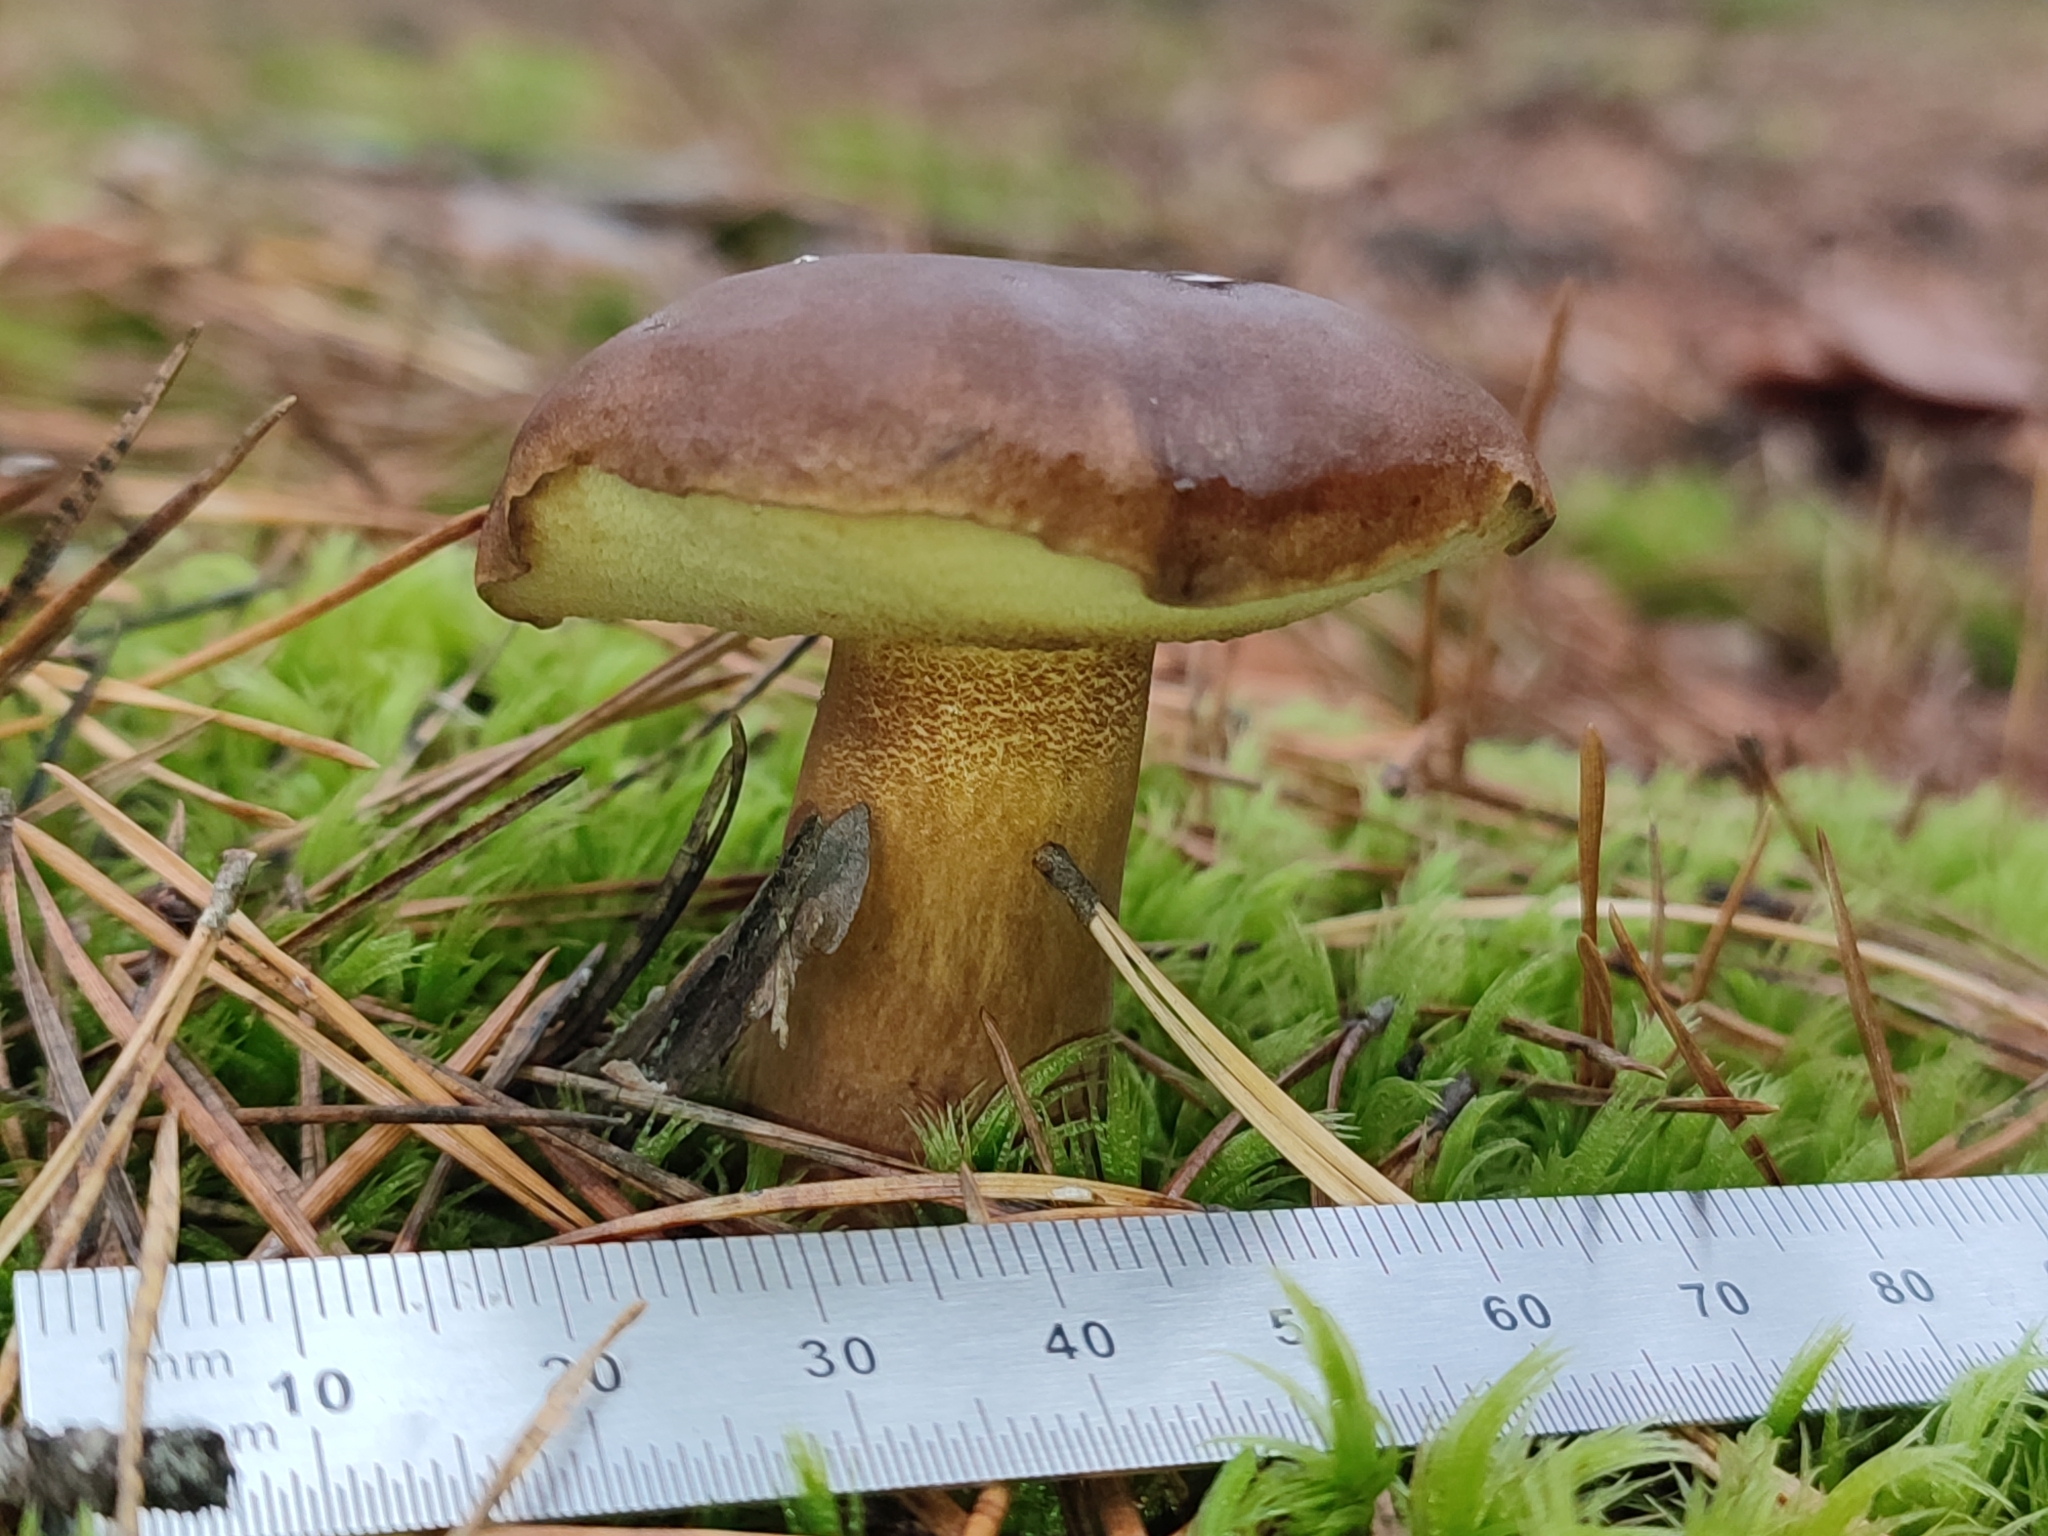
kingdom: Fungi
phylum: Basidiomycota
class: Agaricomycetes
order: Boletales
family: Boletaceae
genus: Imleria
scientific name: Imleria badia
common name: Bay bolete
